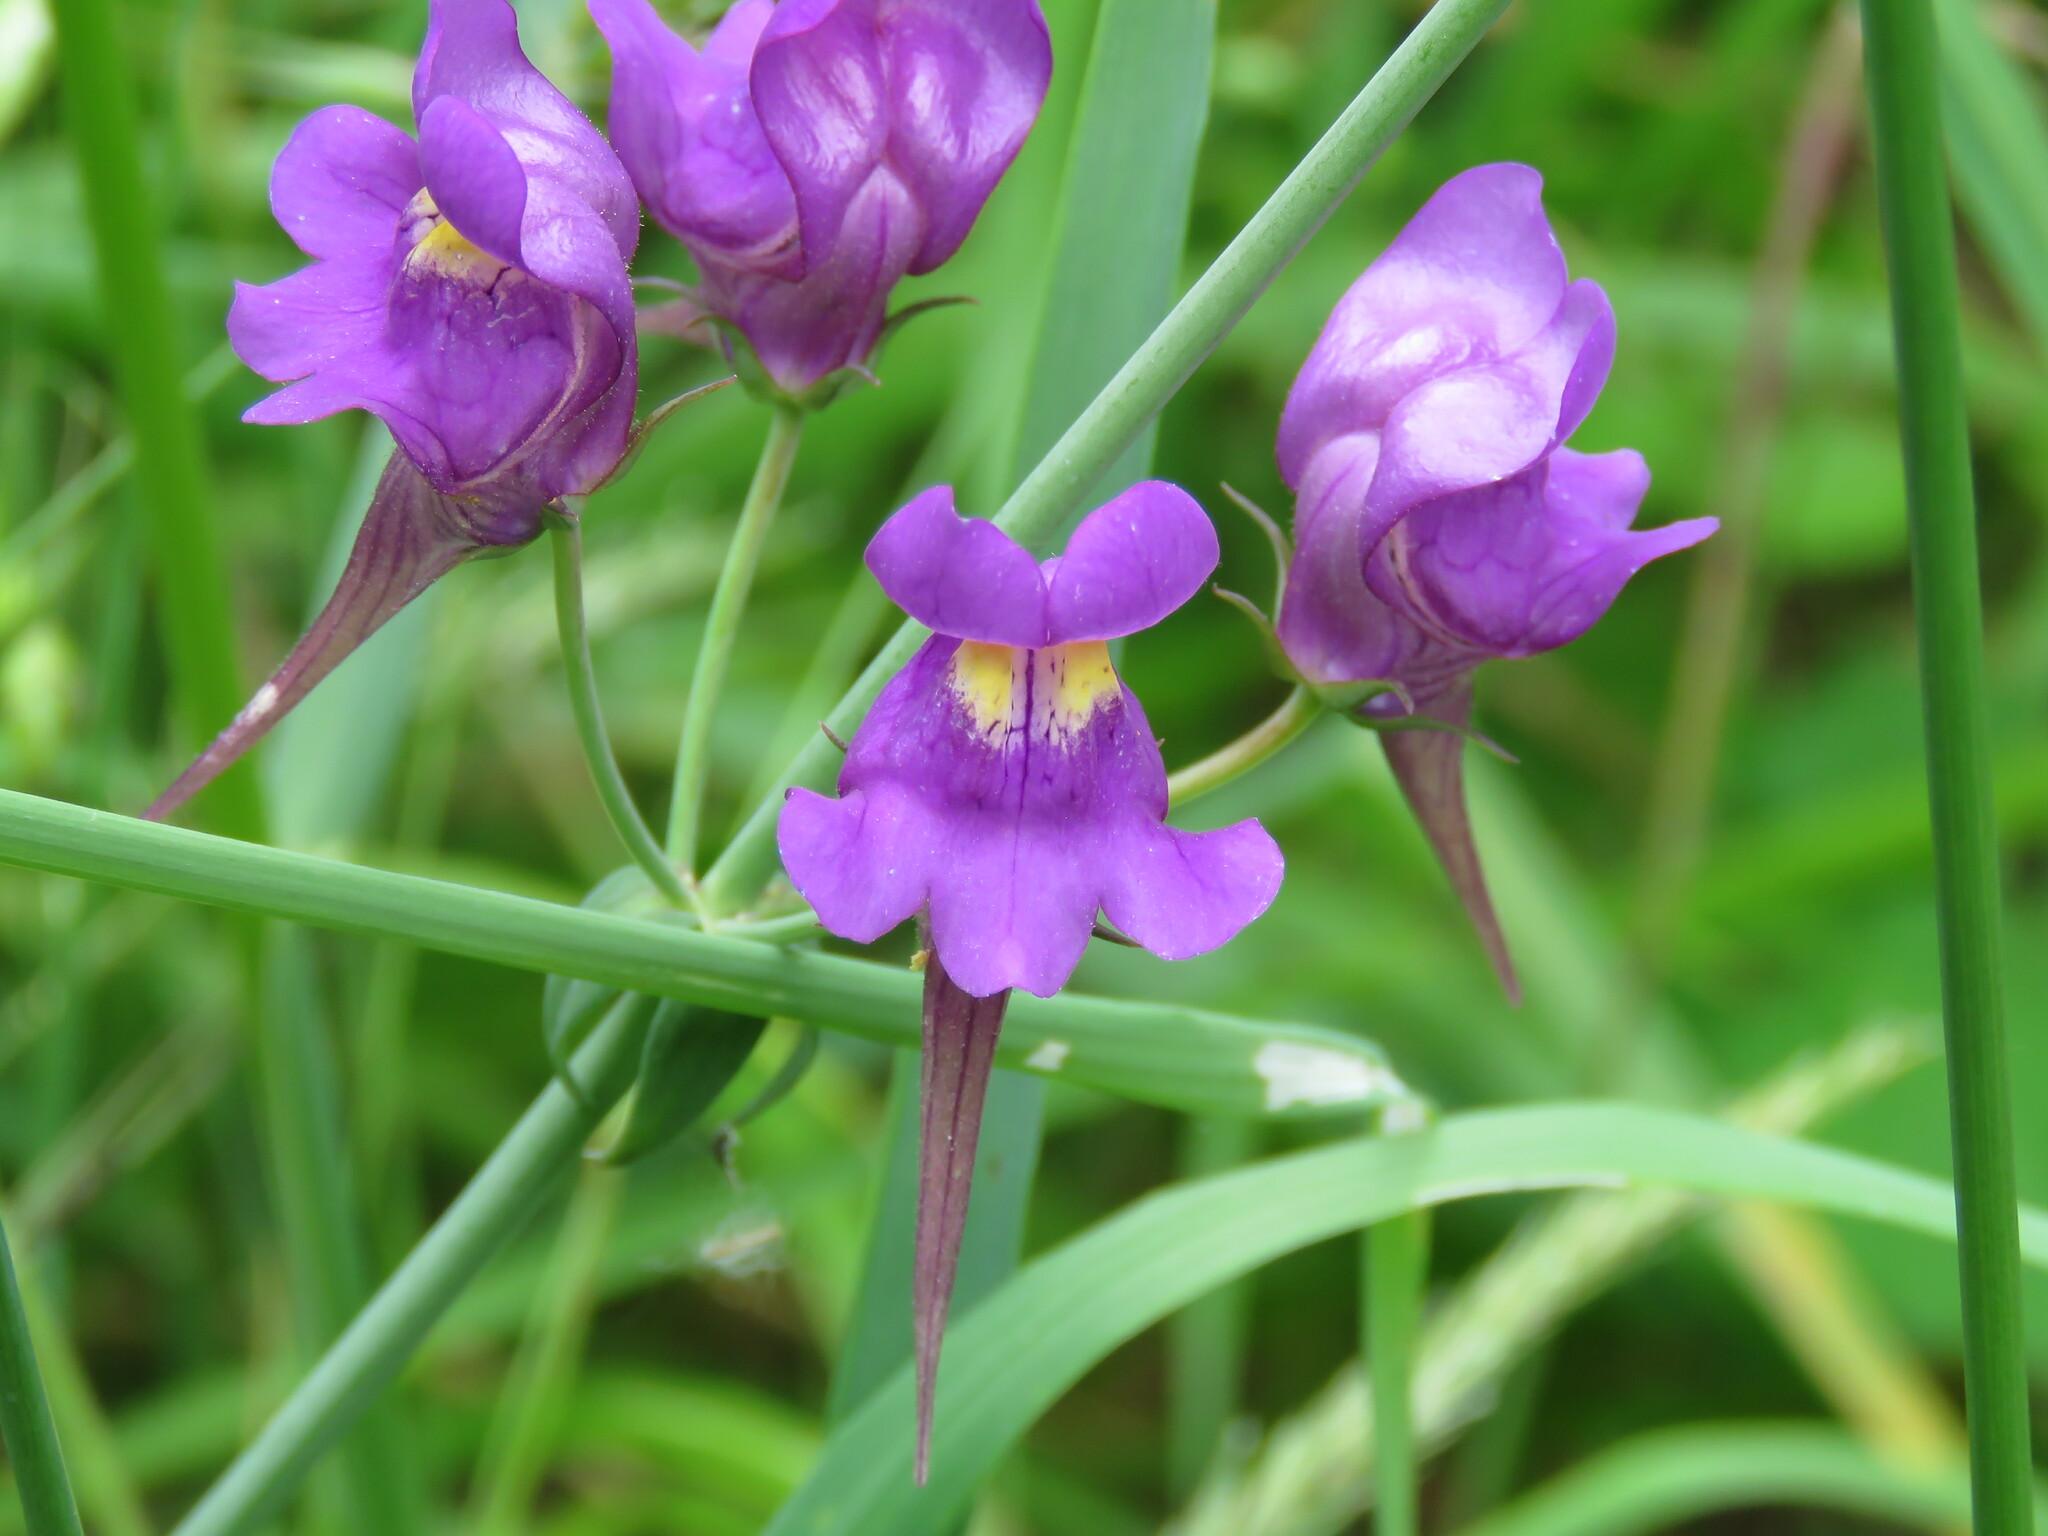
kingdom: Plantae
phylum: Tracheophyta
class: Magnoliopsida
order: Lamiales
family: Plantaginaceae
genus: Linaria
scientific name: Linaria triornithophora
